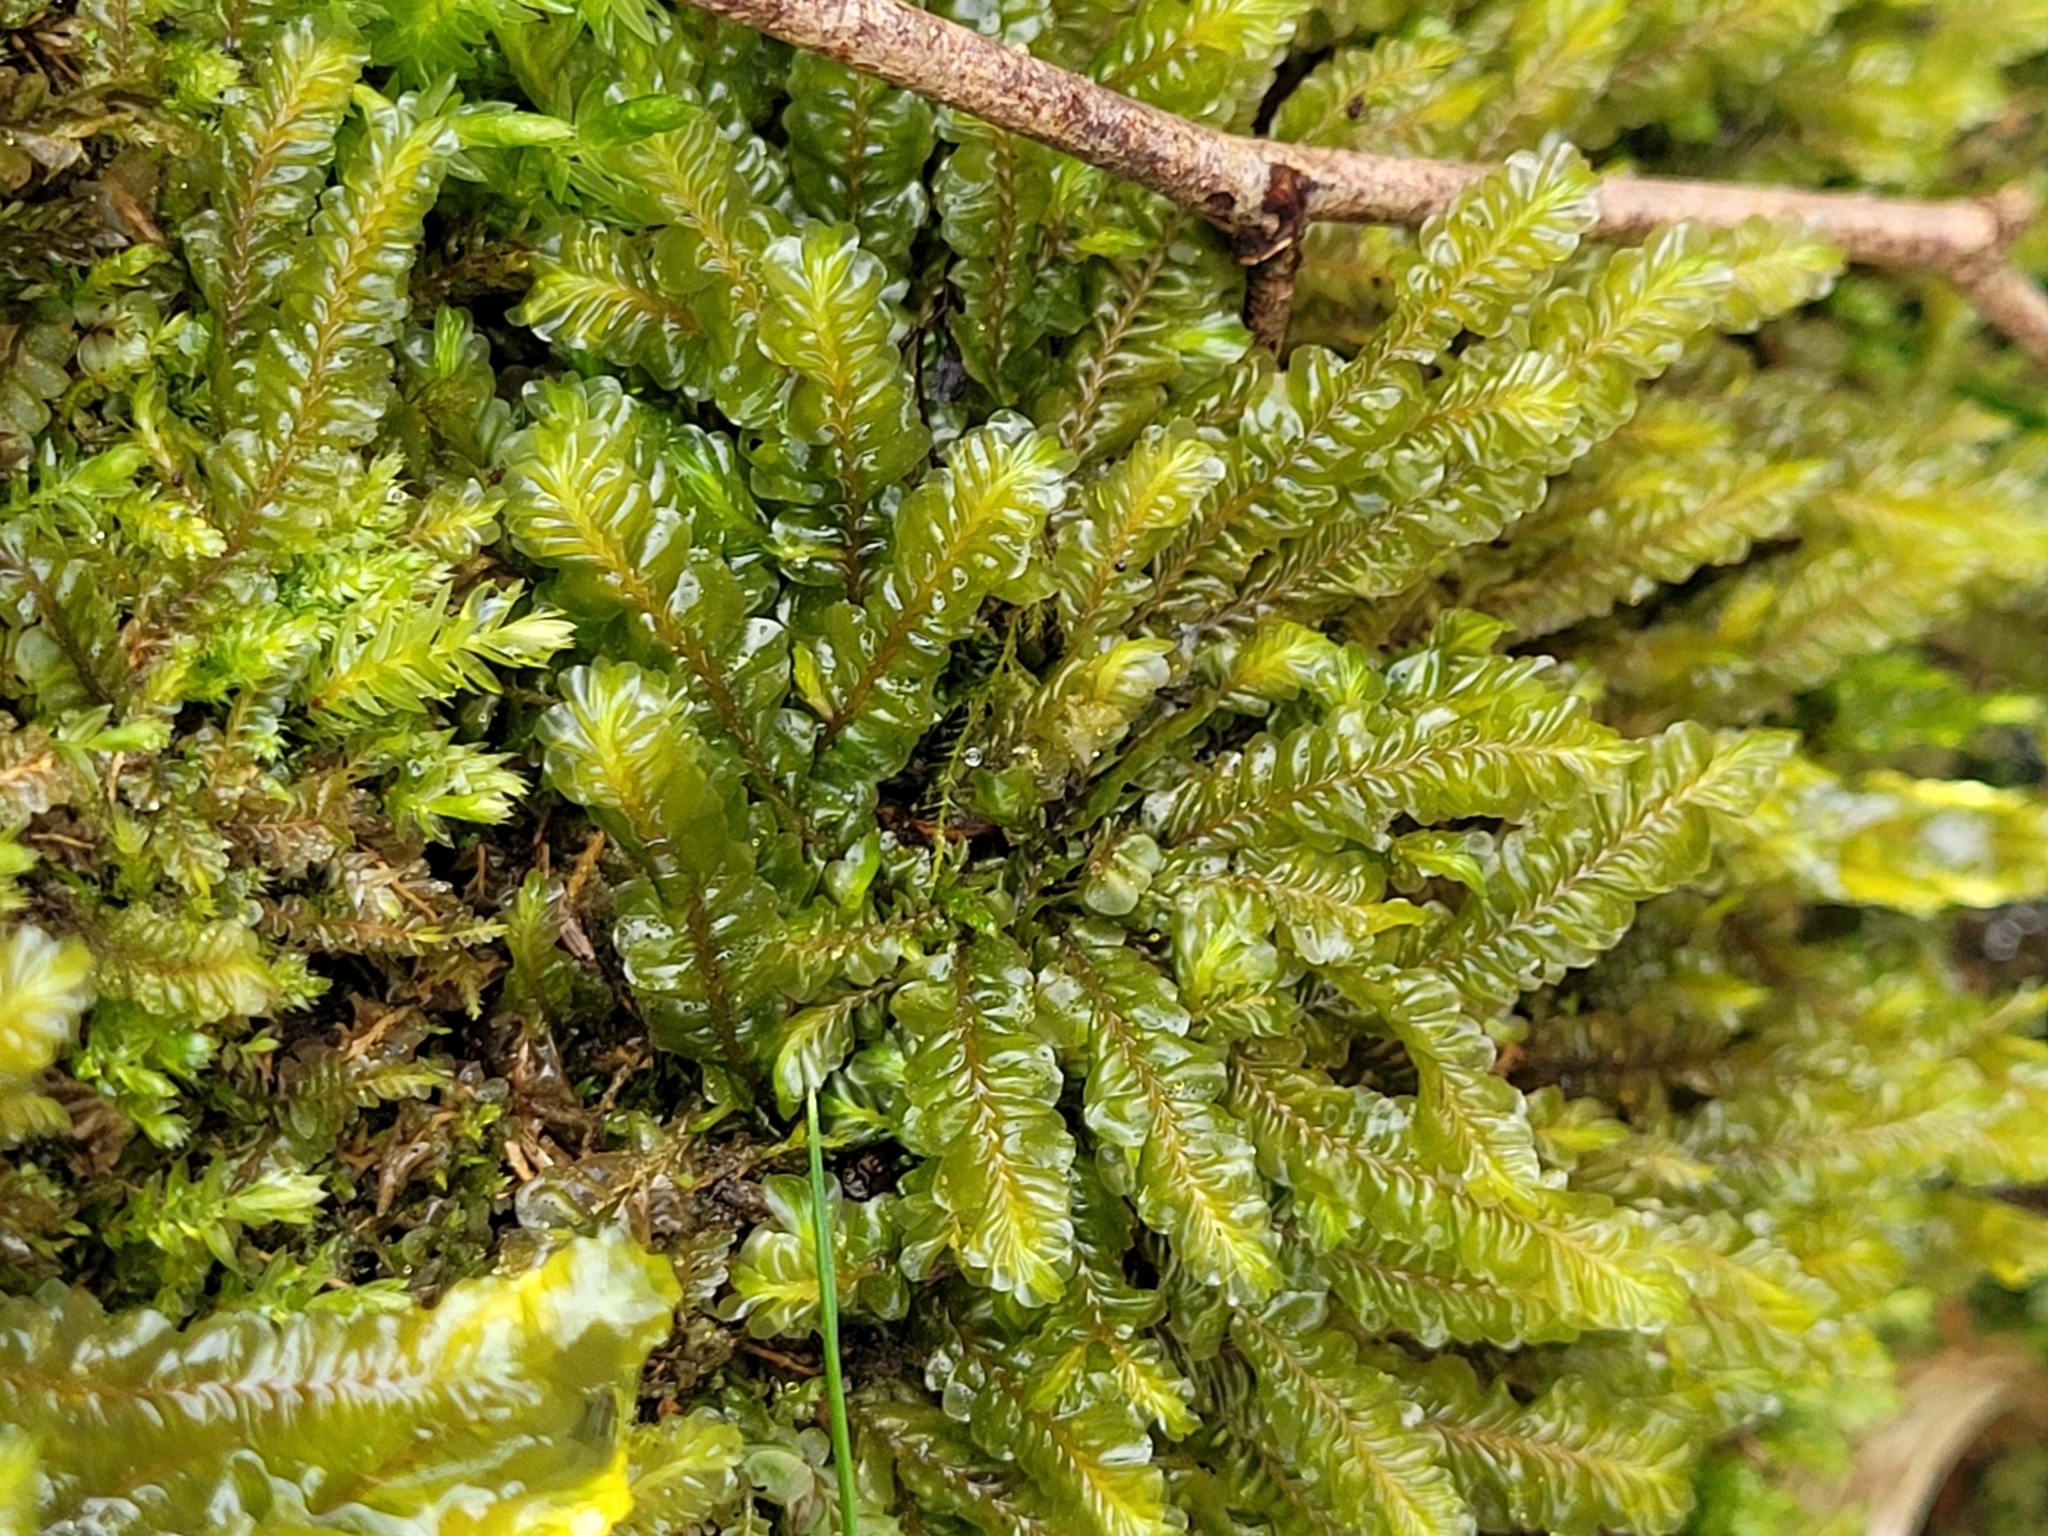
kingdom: Plantae
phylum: Marchantiophyta
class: Jungermanniopsida
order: Jungermanniales
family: Plagiochilaceae
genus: Plagiochila
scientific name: Plagiochila asplenioides
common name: Greater featherwort
